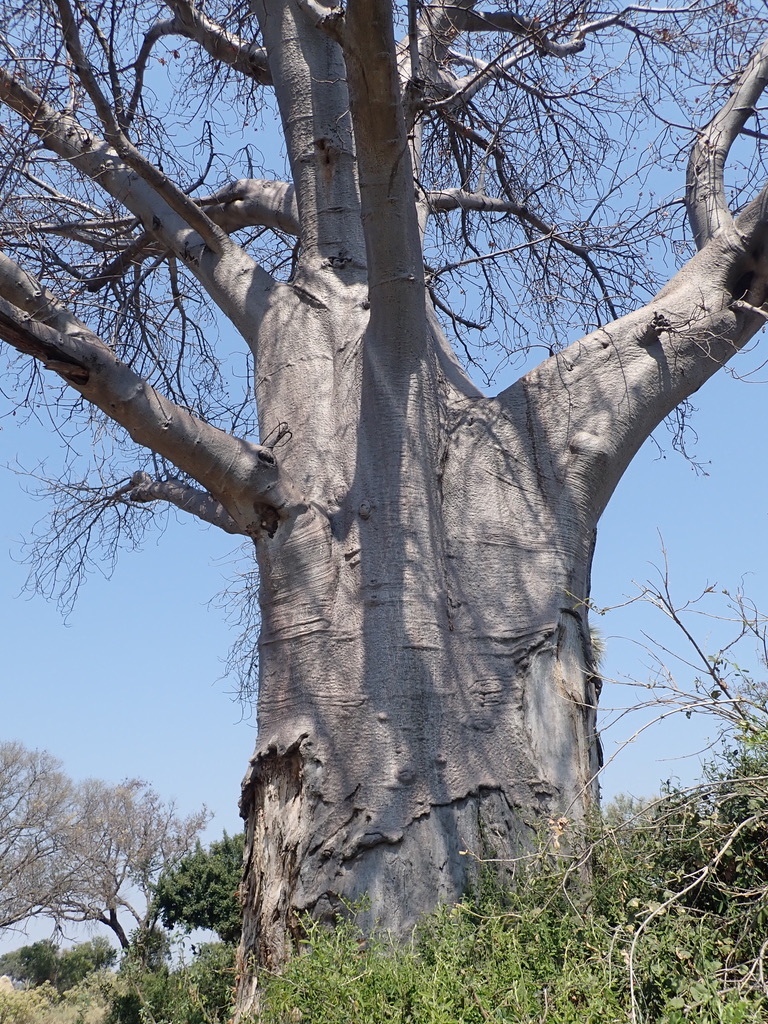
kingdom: Plantae
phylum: Tracheophyta
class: Magnoliopsida
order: Malvales
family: Malvaceae
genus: Adansonia
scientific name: Adansonia digitata
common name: Dead-rat-tree
